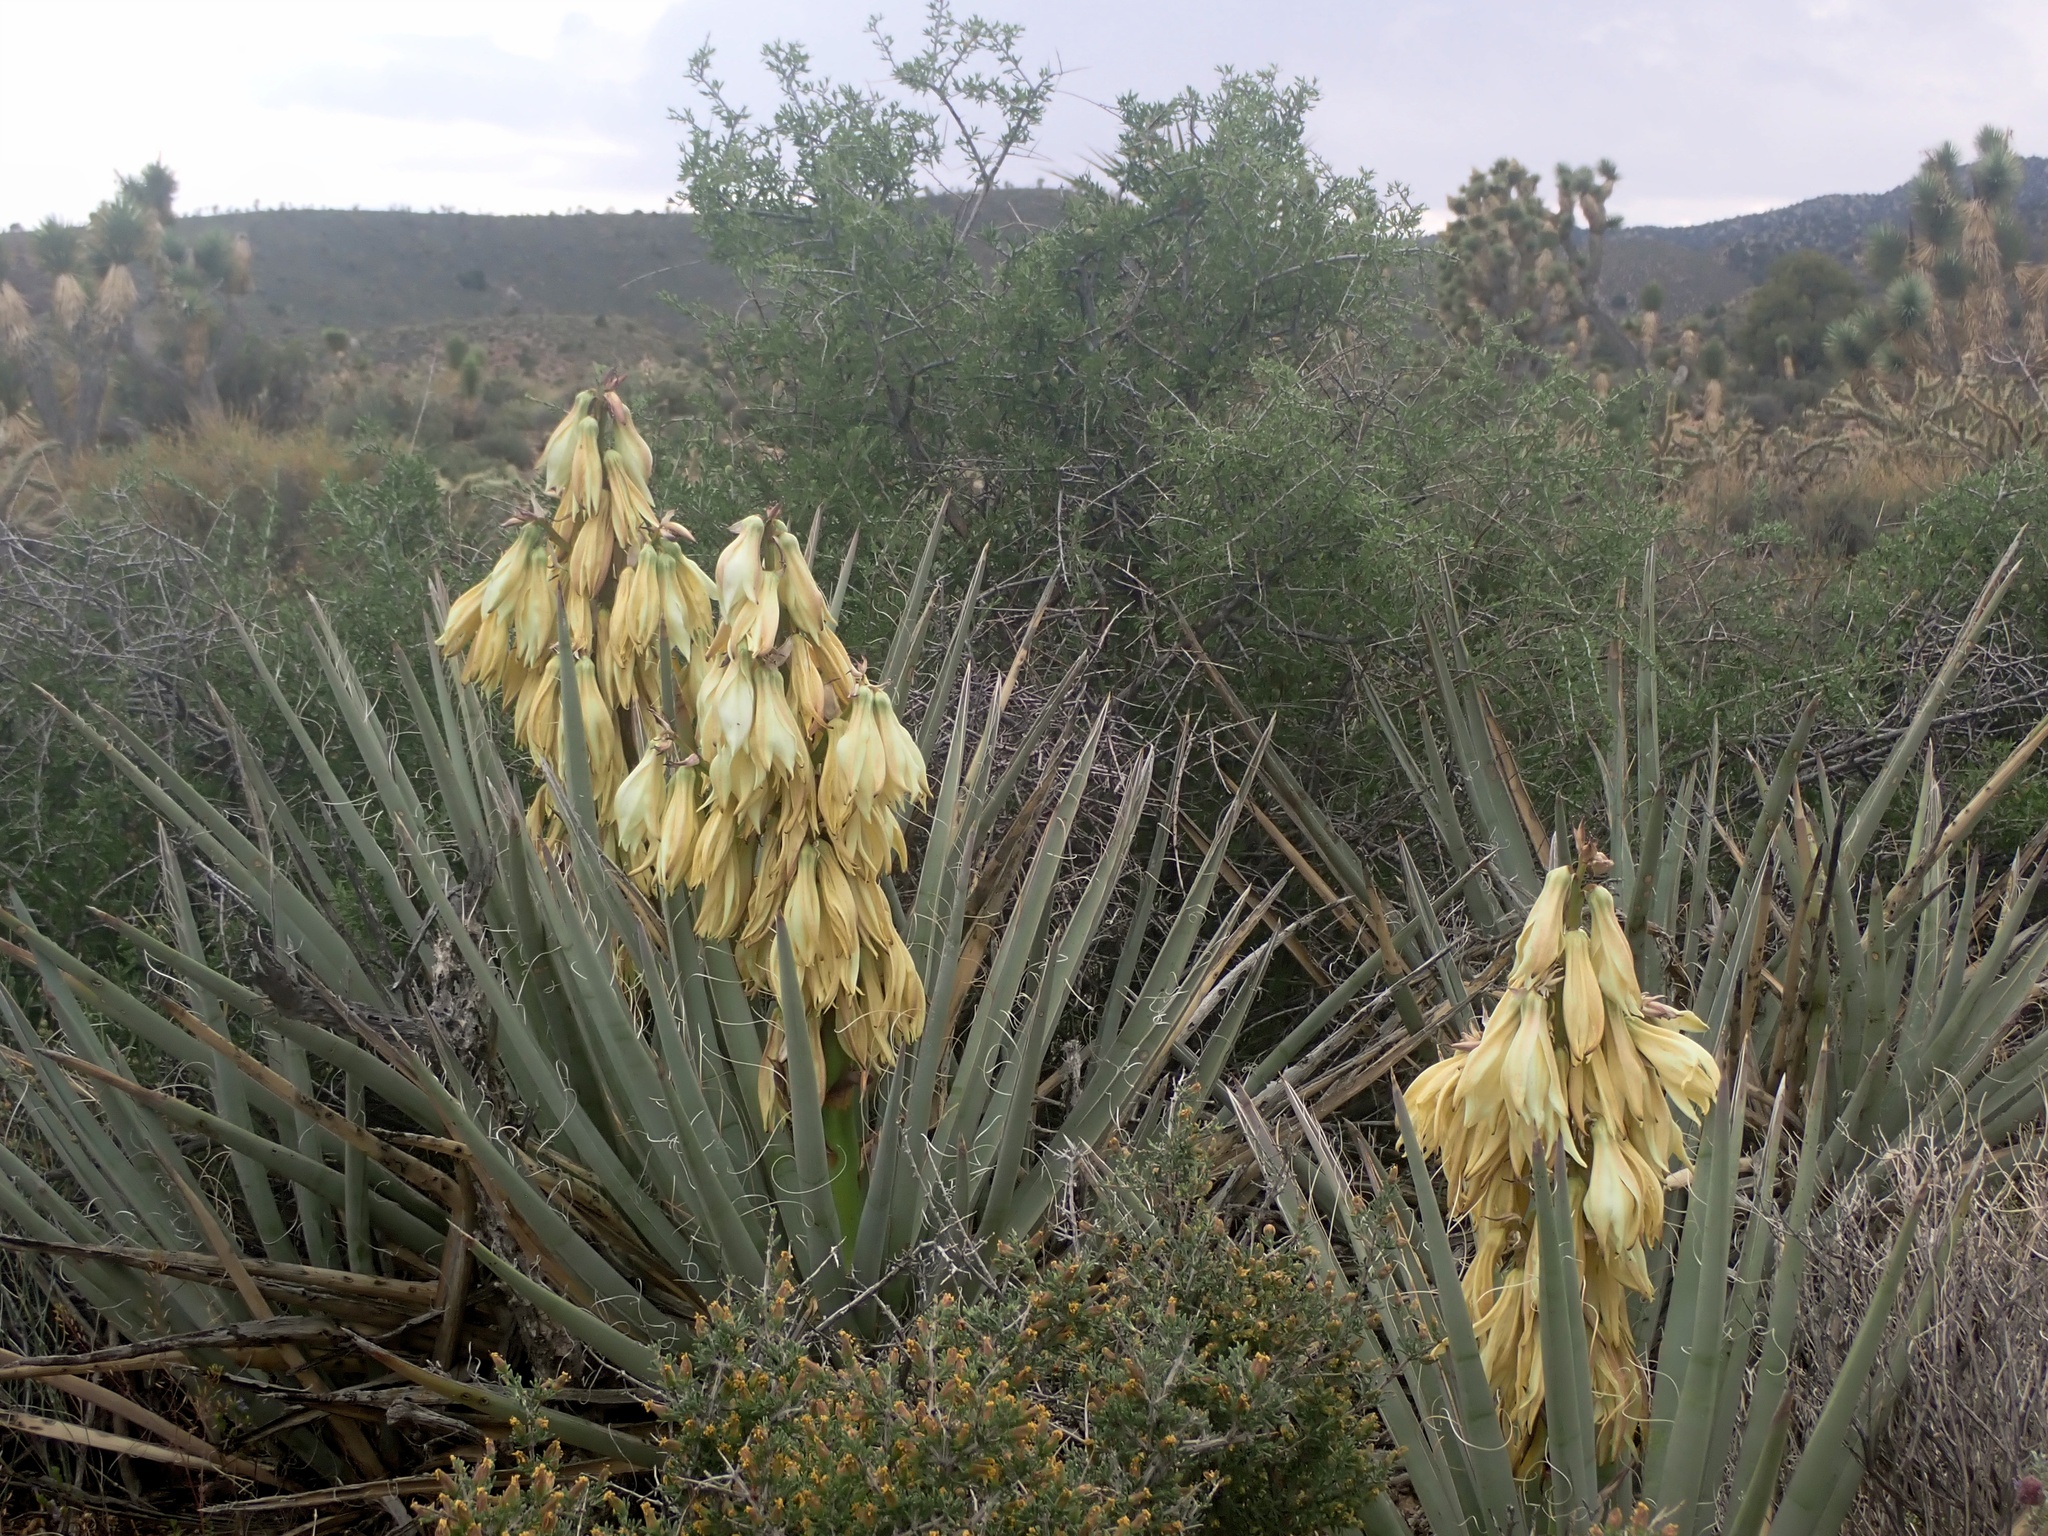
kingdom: Plantae
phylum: Tracheophyta
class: Liliopsida
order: Asparagales
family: Asparagaceae
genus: Yucca
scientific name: Yucca baccata
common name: Banana yucca
